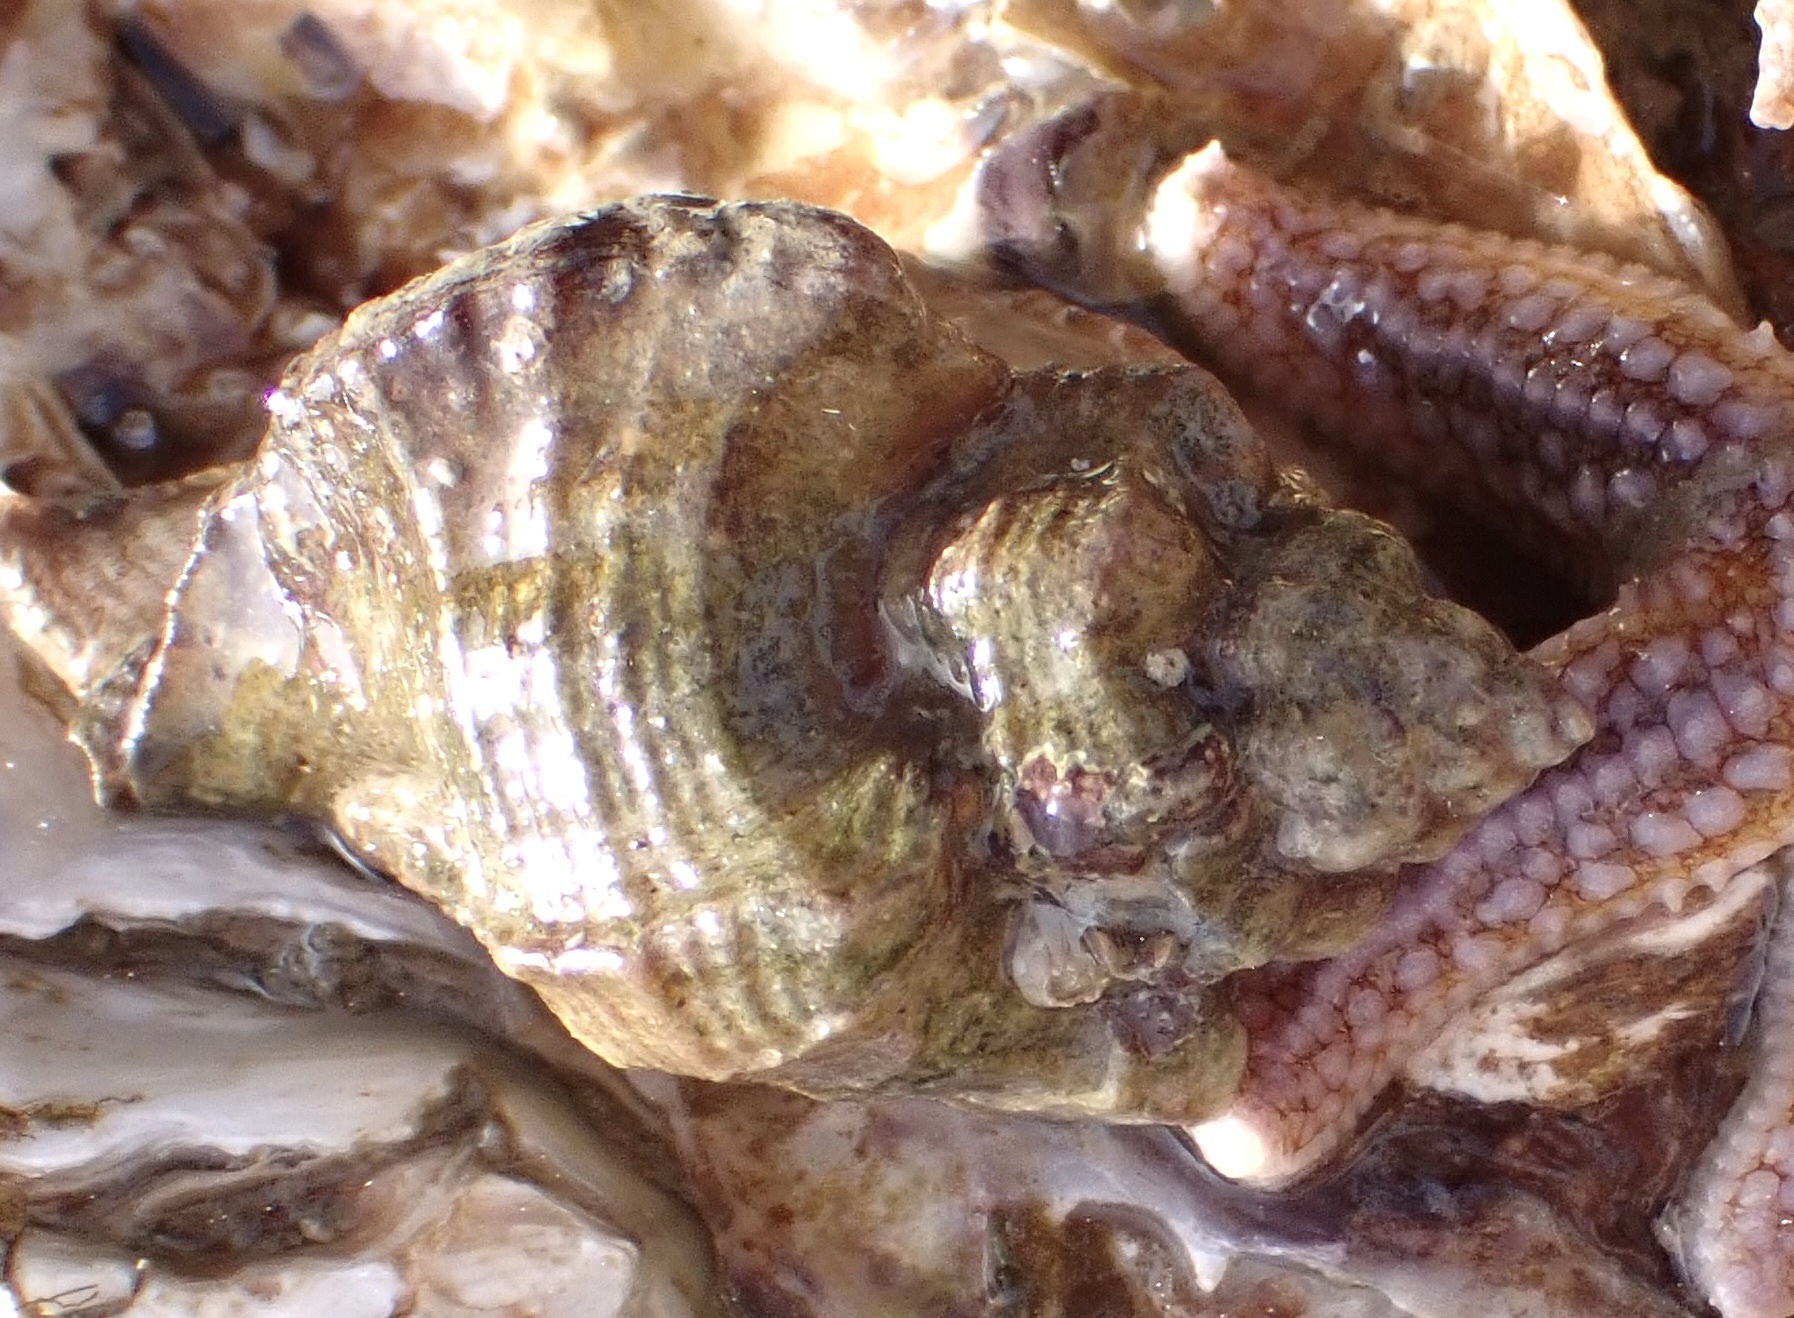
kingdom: Animalia
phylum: Mollusca
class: Gastropoda
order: Neogastropoda
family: Muricidae
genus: Ocinebrellus
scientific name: Ocinebrellus inornatus
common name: Asian drill snail
